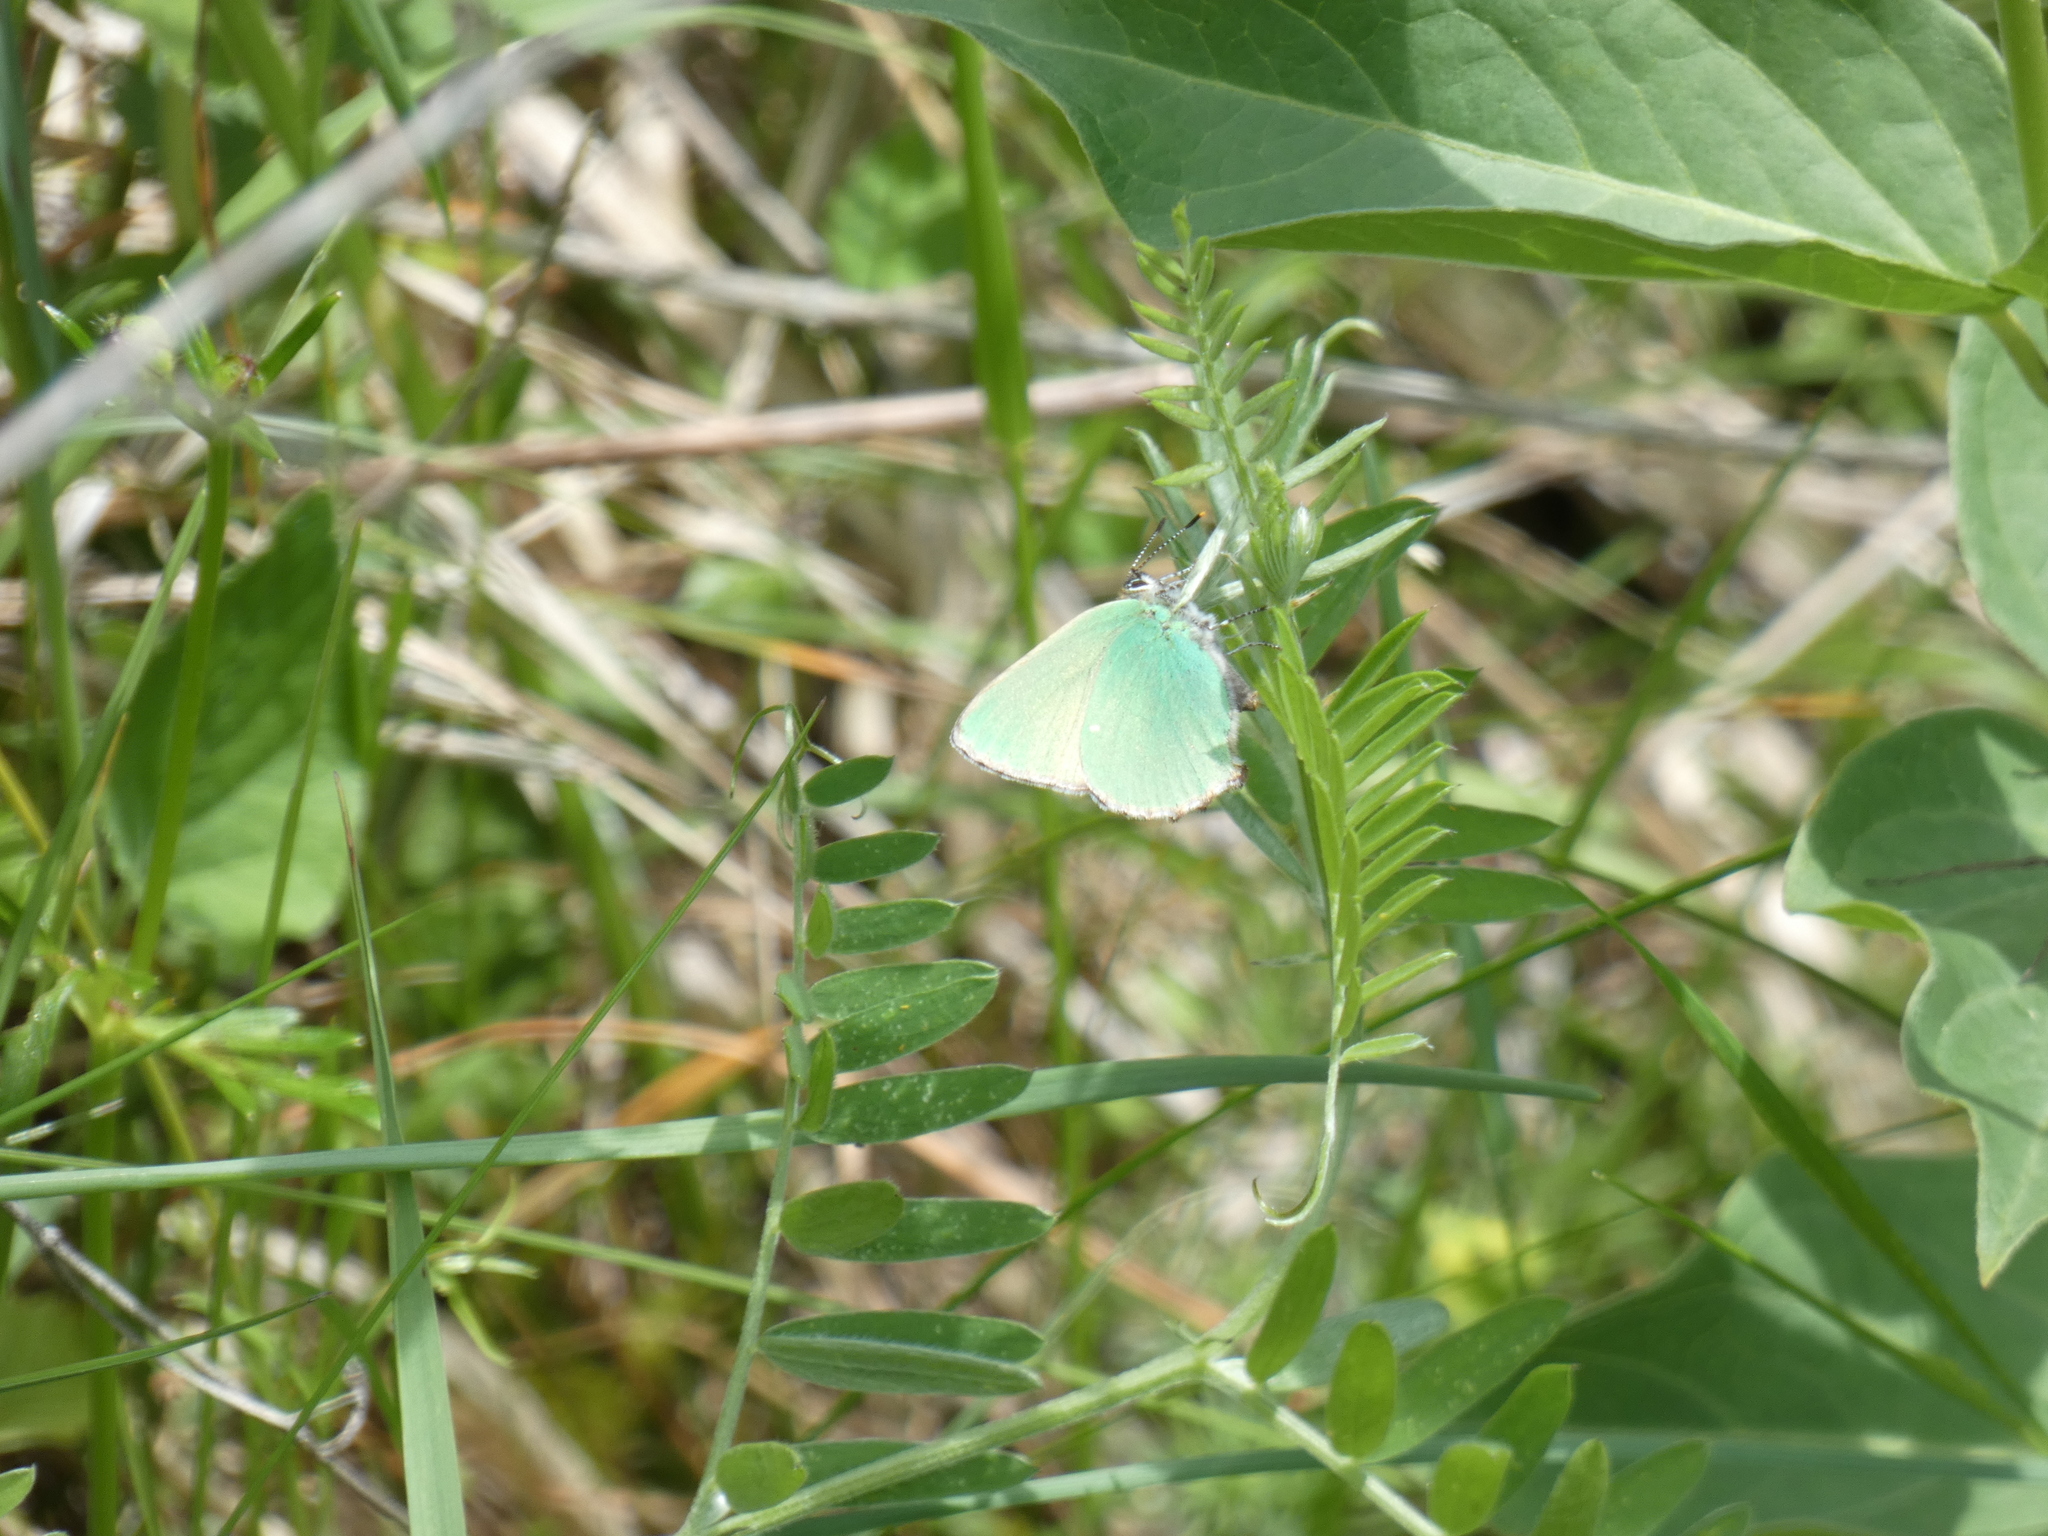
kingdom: Animalia
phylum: Arthropoda
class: Insecta
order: Lepidoptera
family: Lycaenidae
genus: Callophrys
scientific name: Callophrys rubi
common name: Green hairstreak
